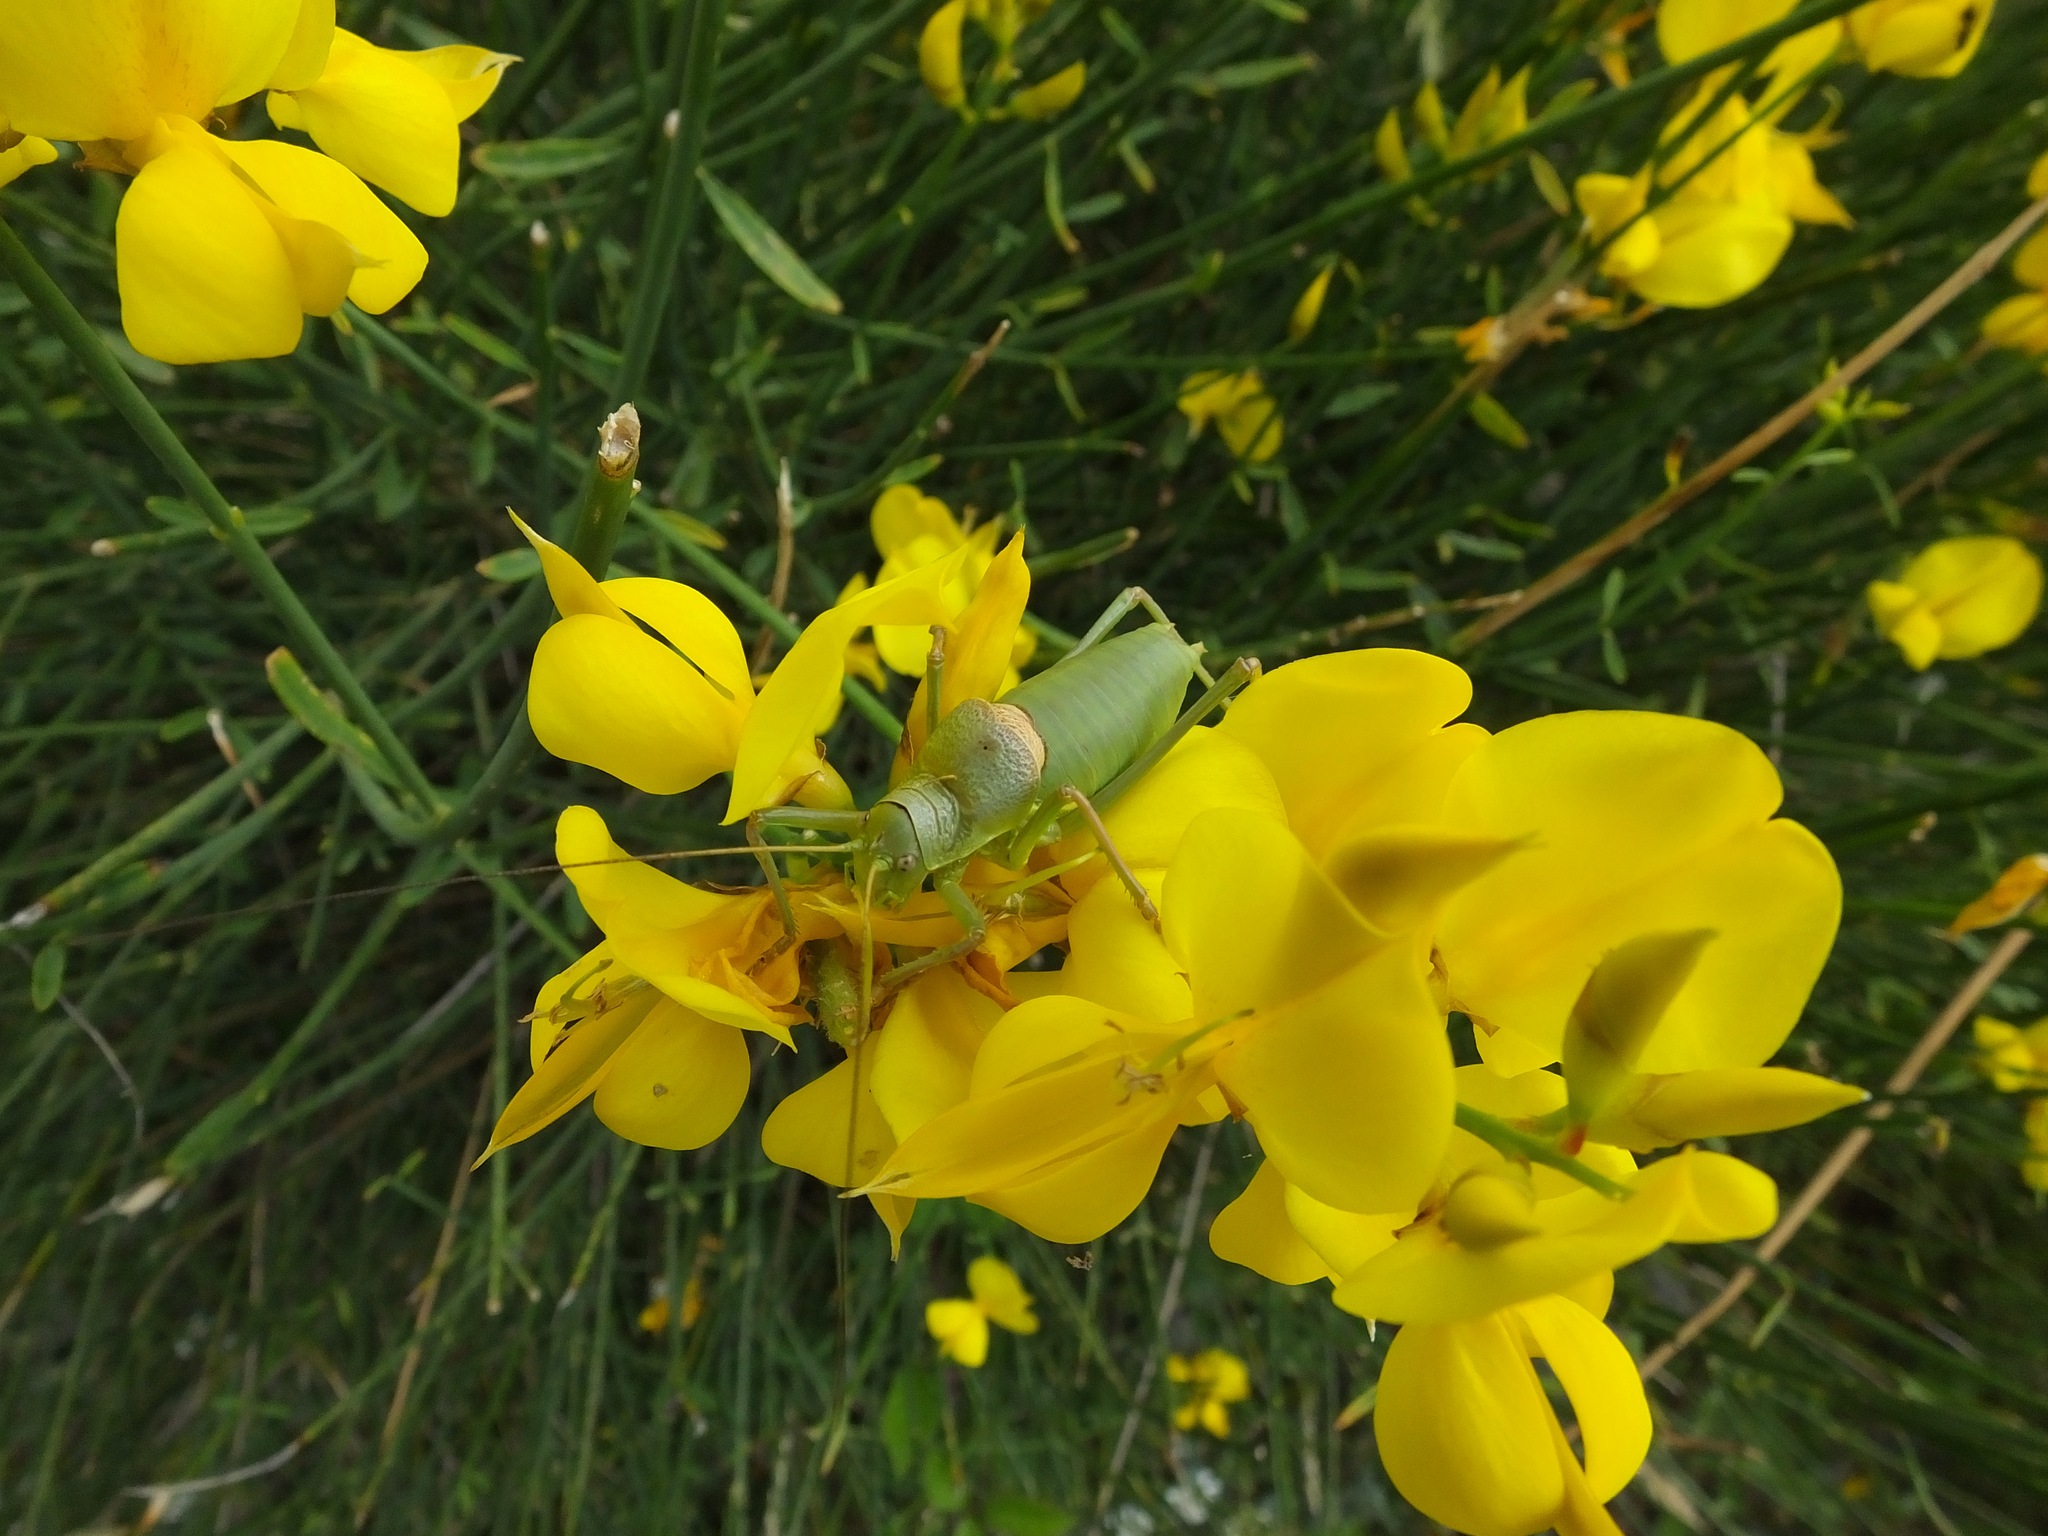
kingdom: Animalia
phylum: Arthropoda
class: Insecta
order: Orthoptera
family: Tettigoniidae
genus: Ephippiger
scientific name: Ephippiger terrestris
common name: Alpine saddle-backed bush-cricket
